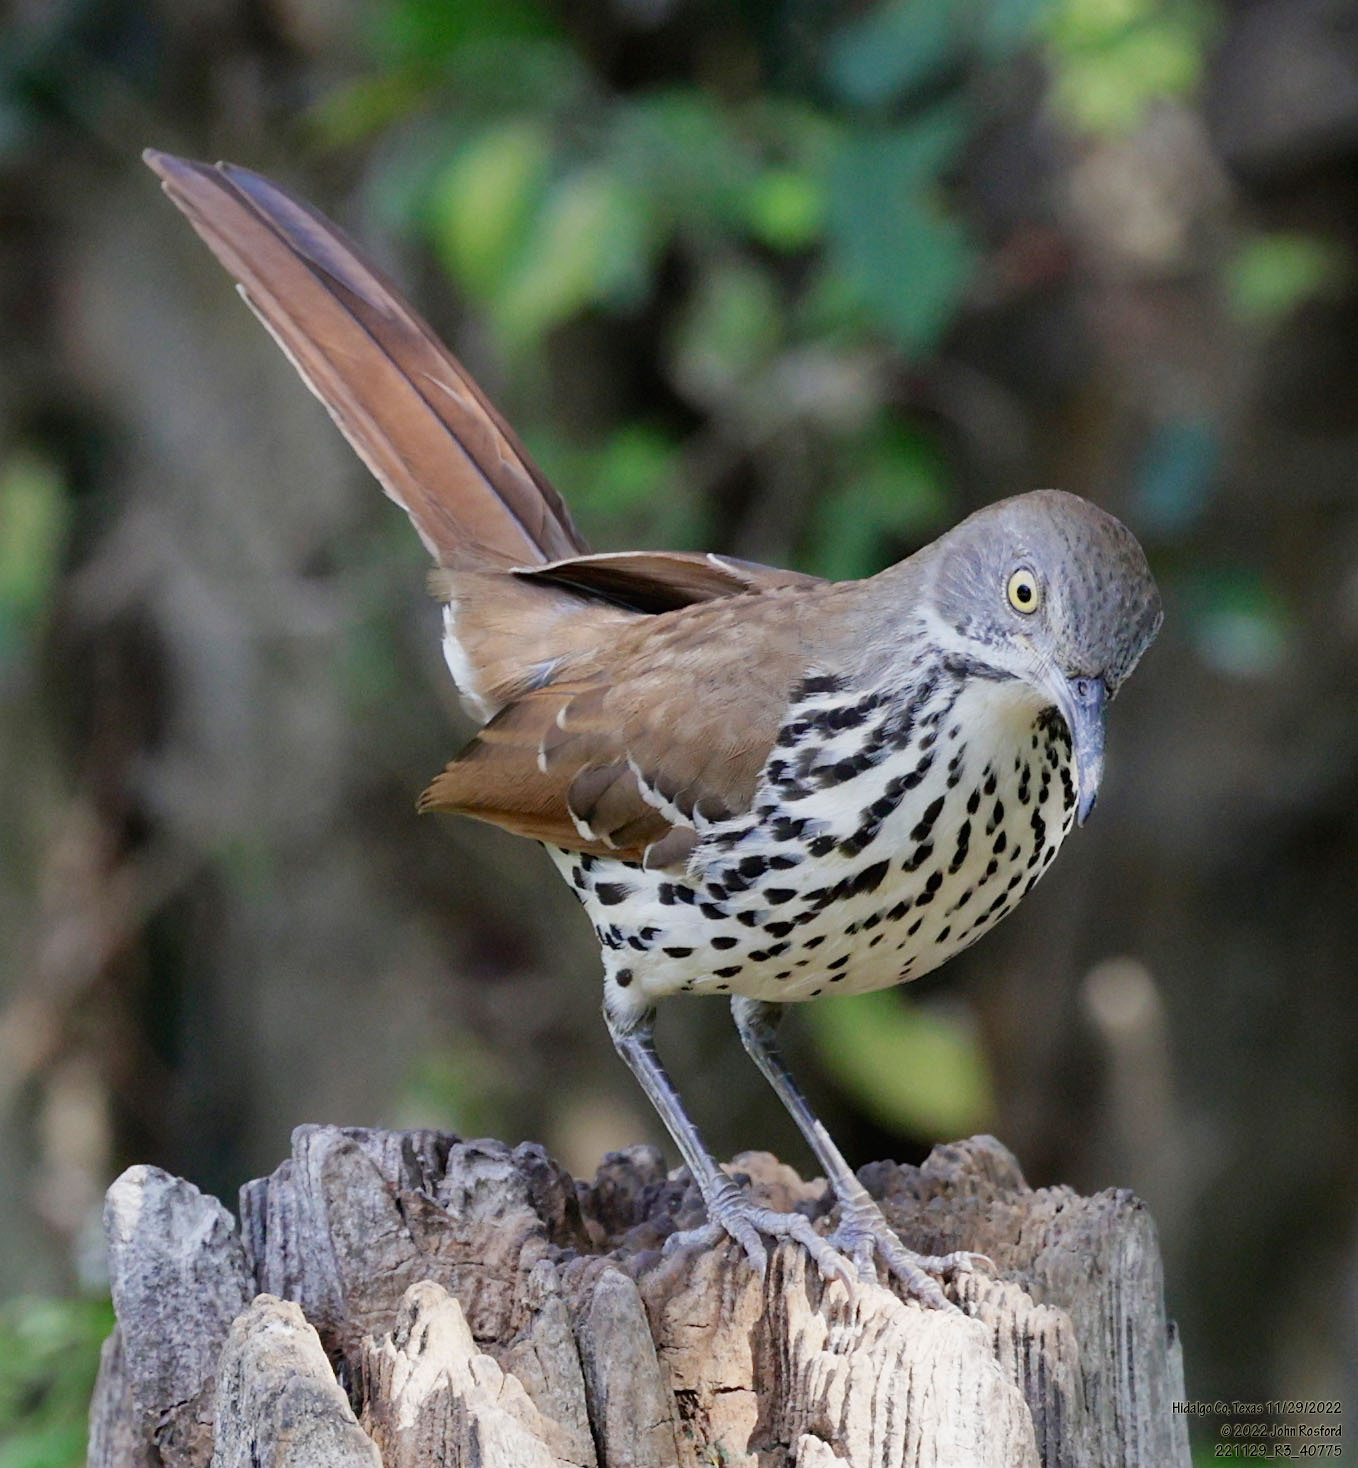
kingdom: Animalia
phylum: Chordata
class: Aves
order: Passeriformes
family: Mimidae
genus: Toxostoma
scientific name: Toxostoma longirostre
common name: Long-billed thrasher
